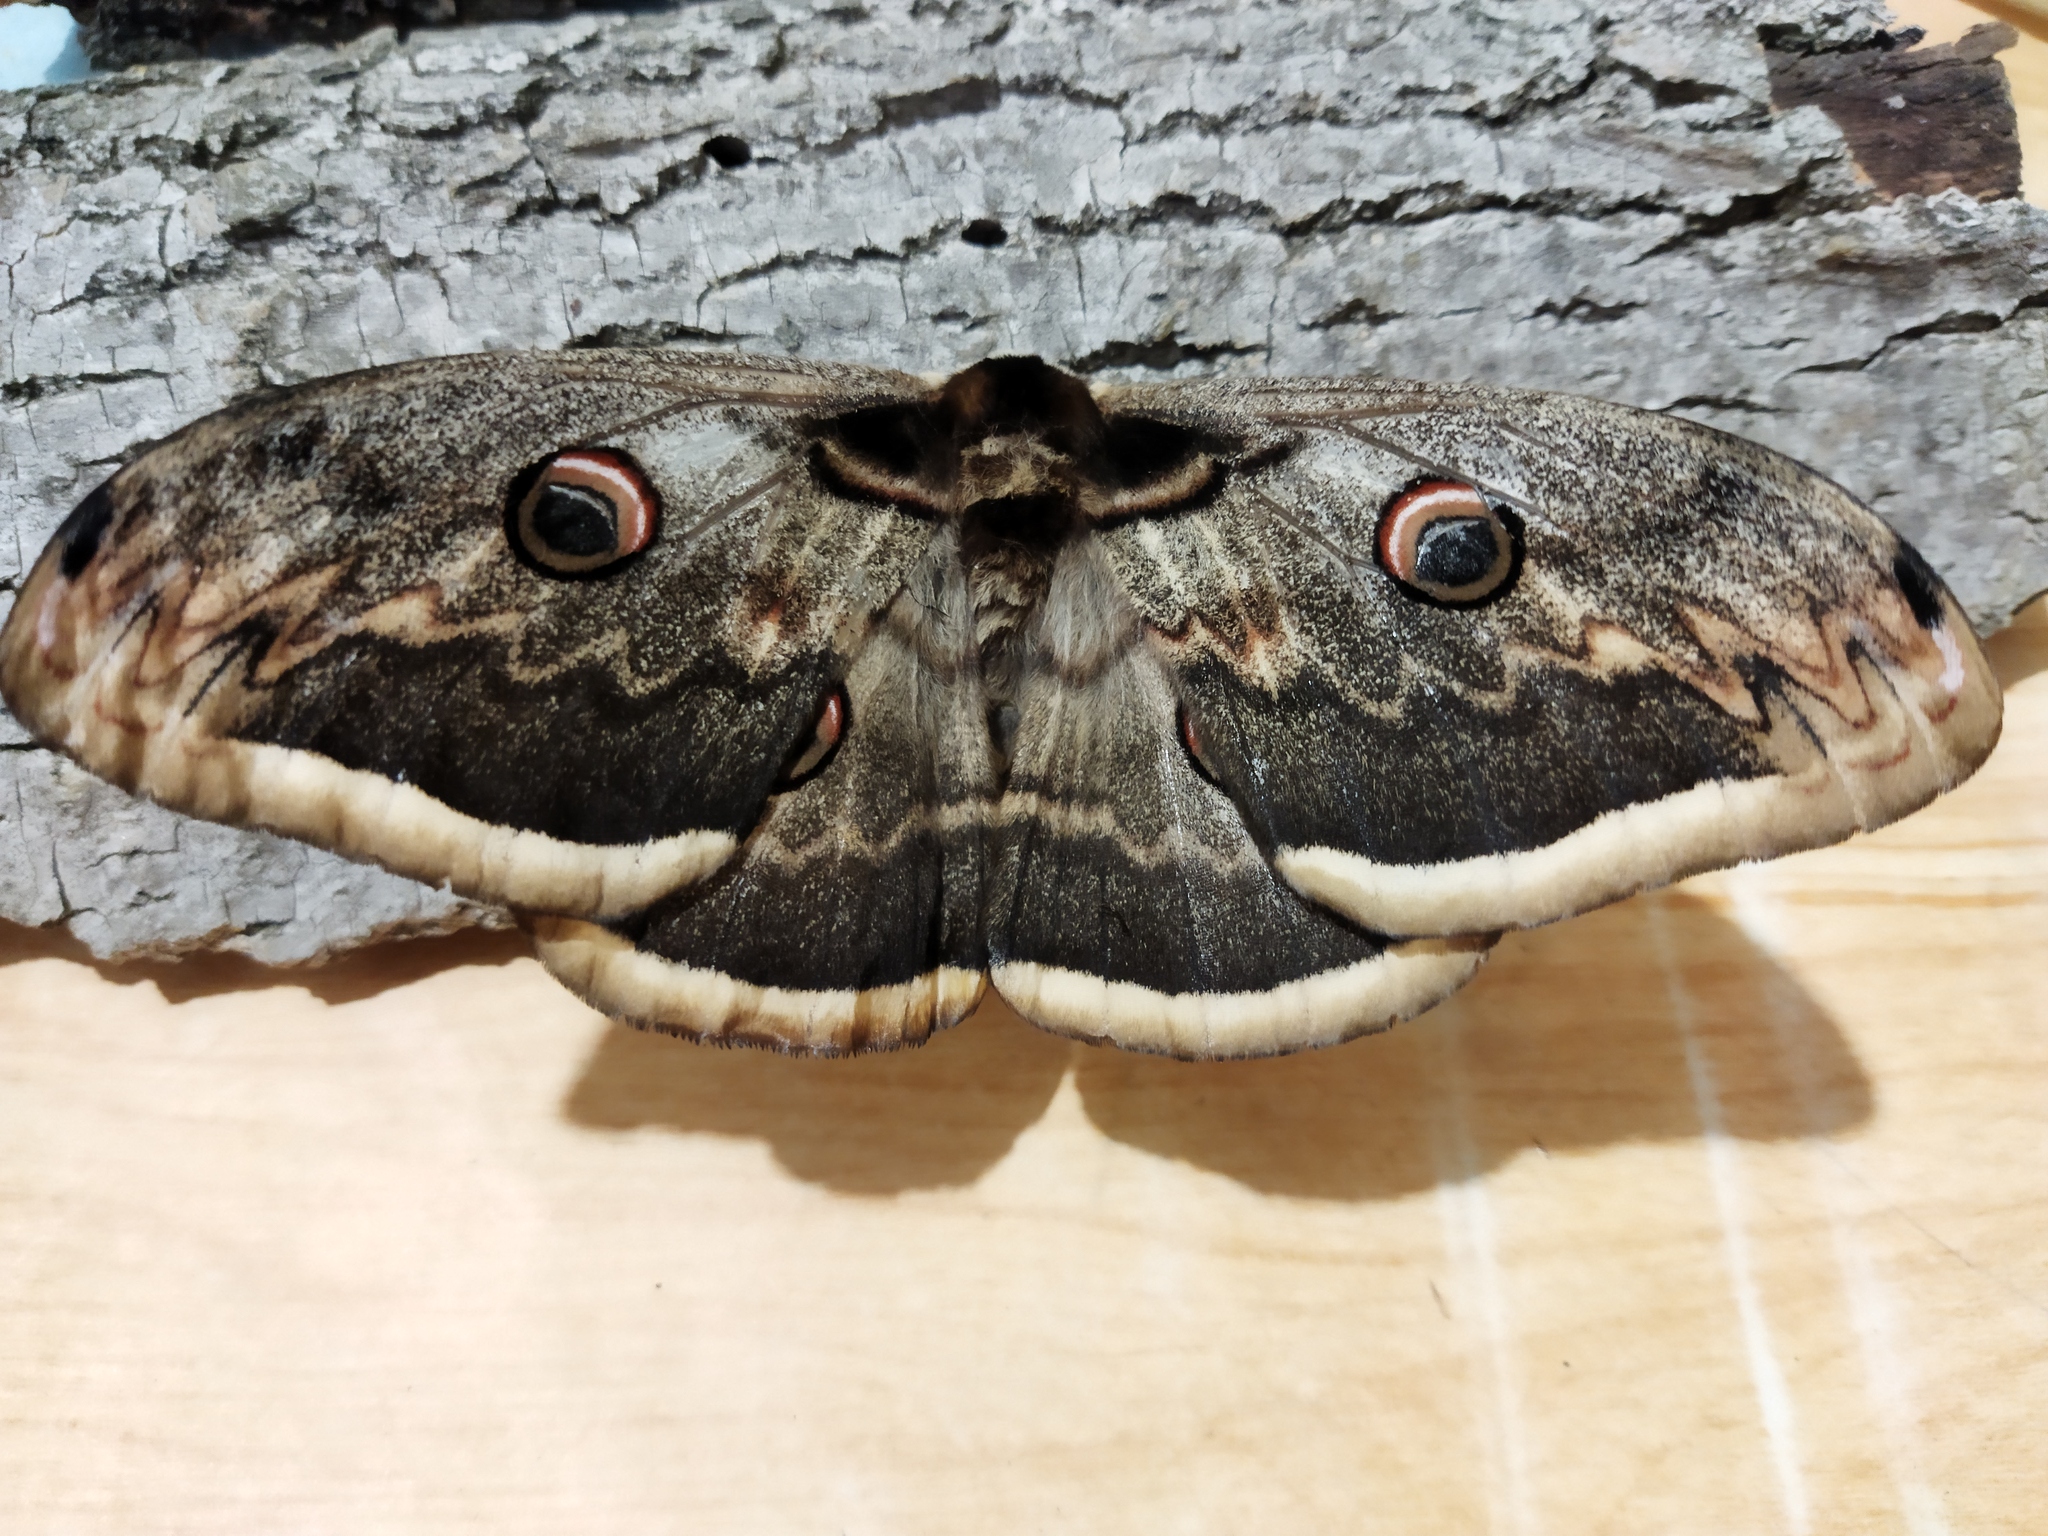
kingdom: Animalia
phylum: Arthropoda
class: Insecta
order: Lepidoptera
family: Saturniidae
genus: Saturnia
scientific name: Saturnia pyri
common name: Great peacock moth
